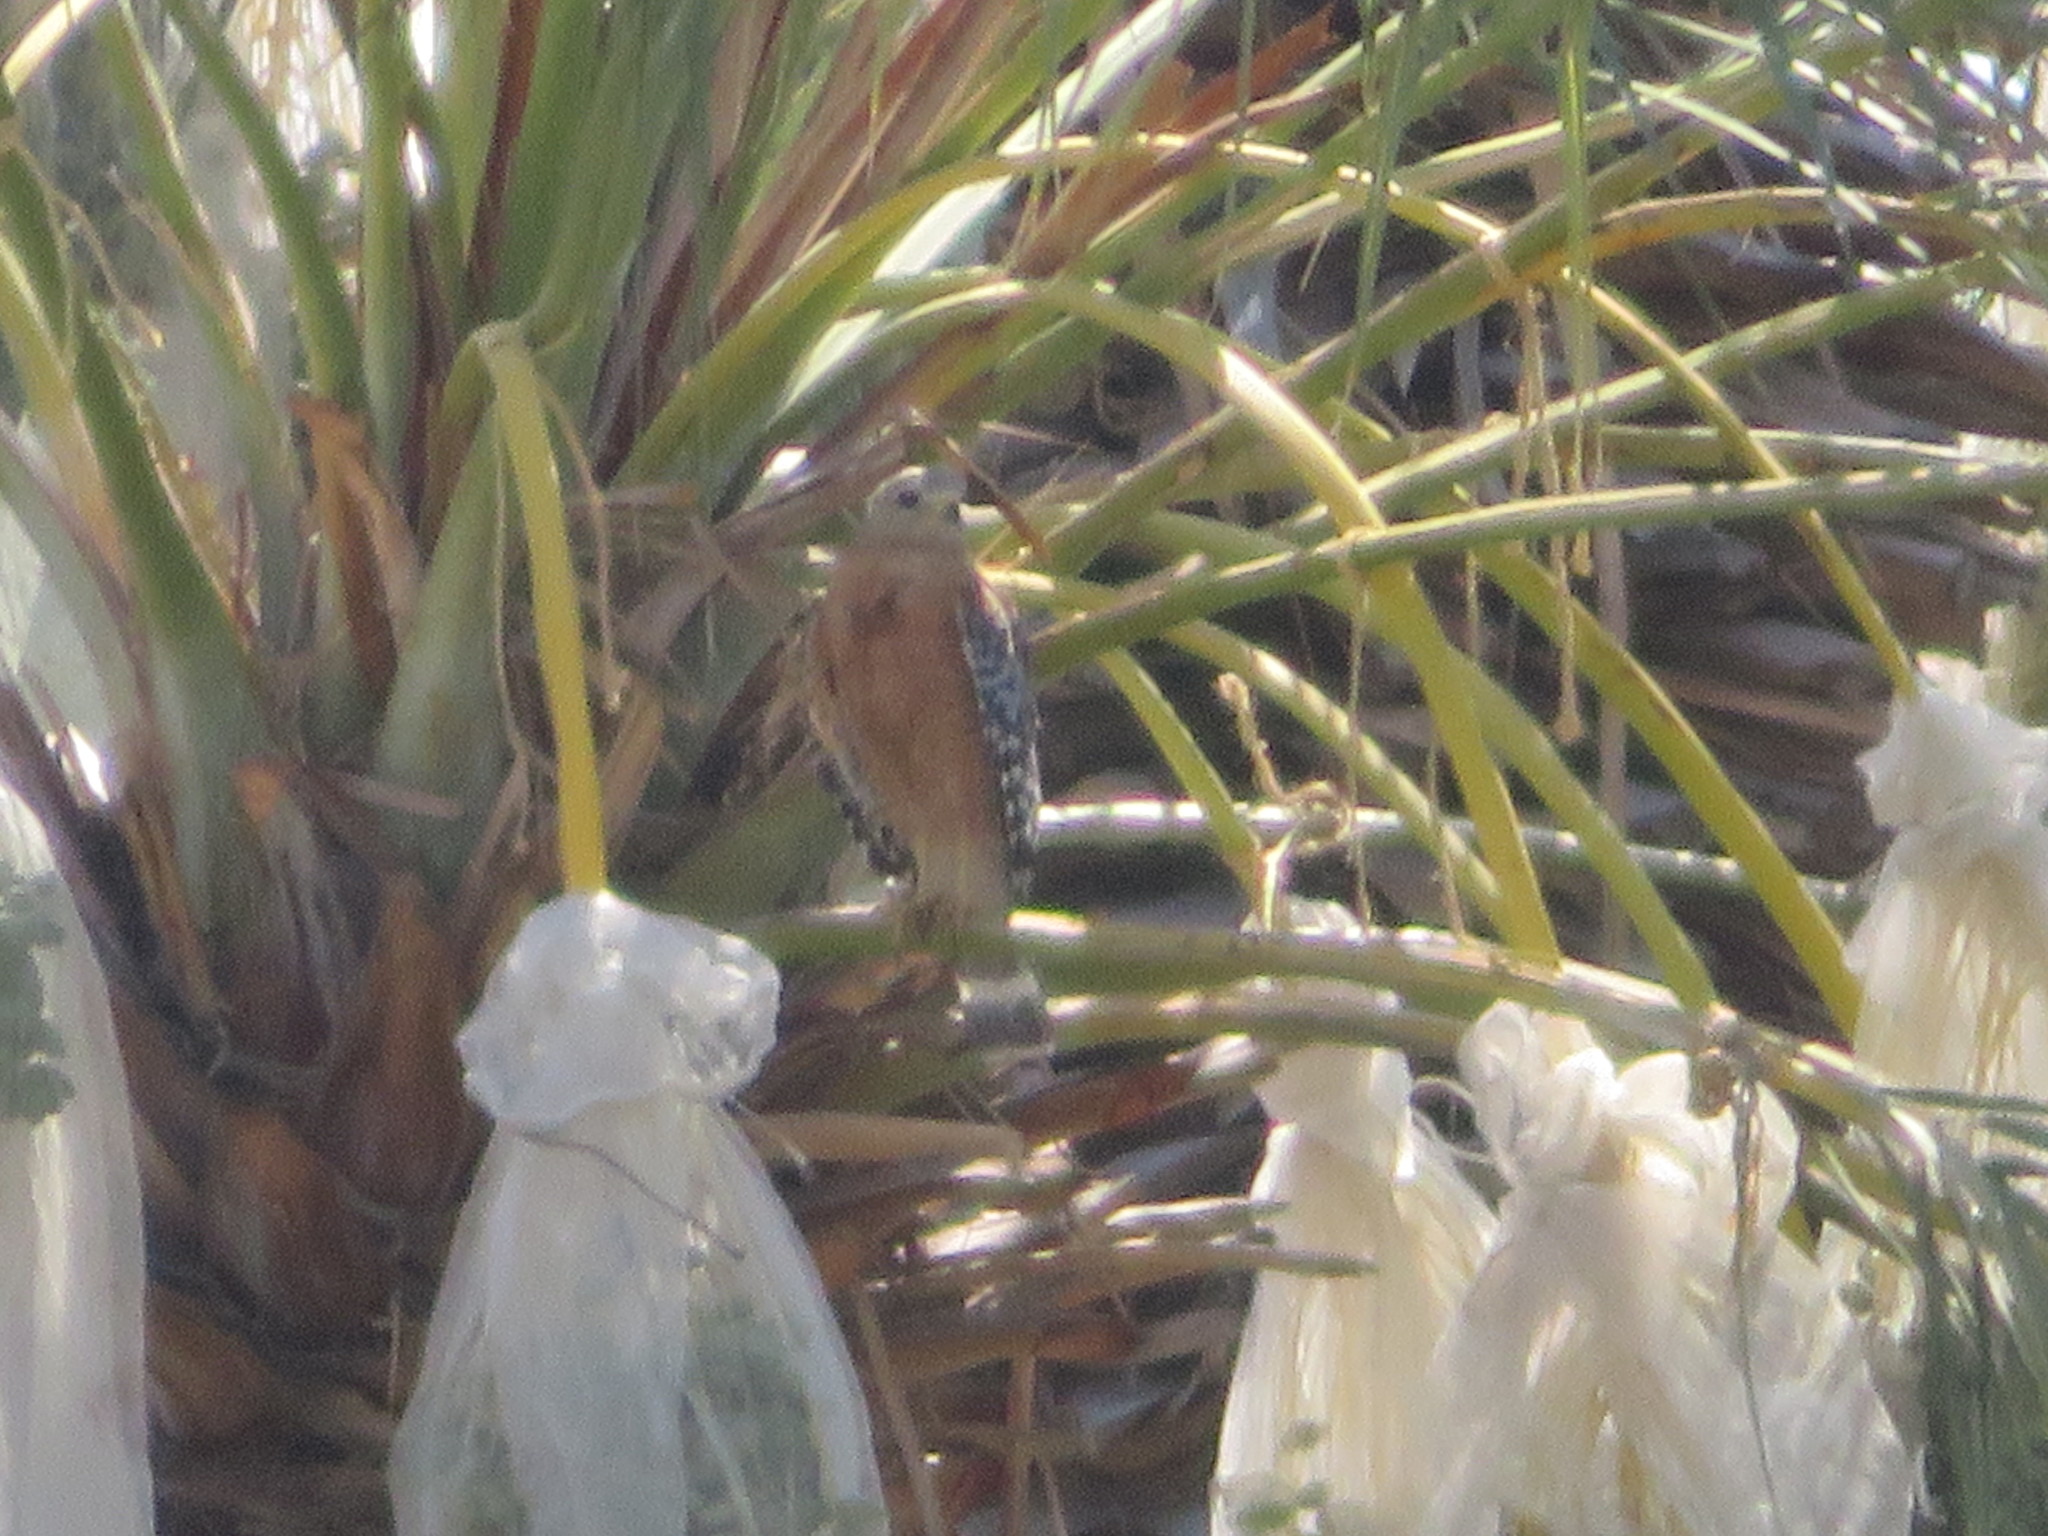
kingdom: Animalia
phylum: Chordata
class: Aves
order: Accipitriformes
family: Accipitridae
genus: Buteo
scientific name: Buteo lineatus
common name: Red-shouldered hawk
